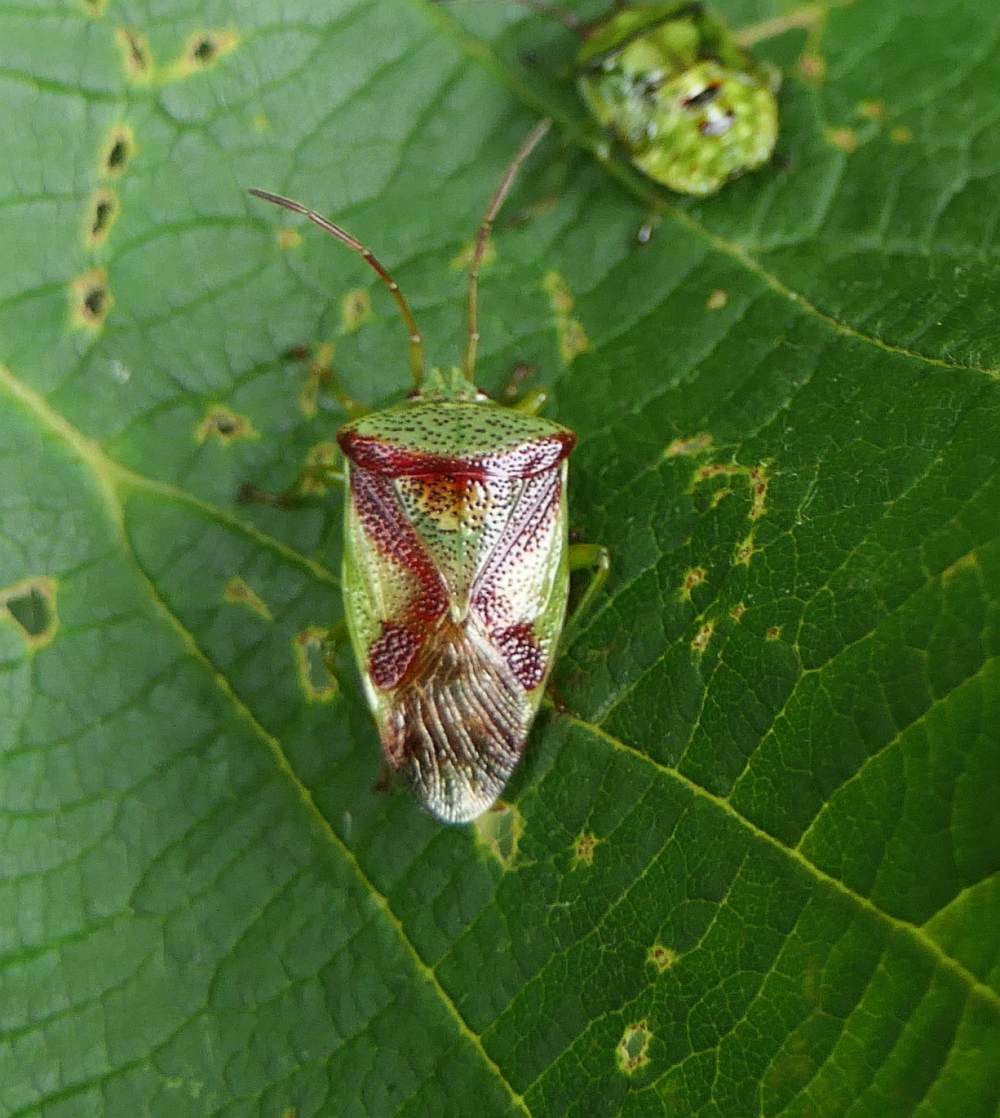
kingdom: Animalia
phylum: Arthropoda
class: Insecta
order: Hemiptera
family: Acanthosomatidae
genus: Elasmostethus
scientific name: Elasmostethus cruciatus
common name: Red-cross shield bug
